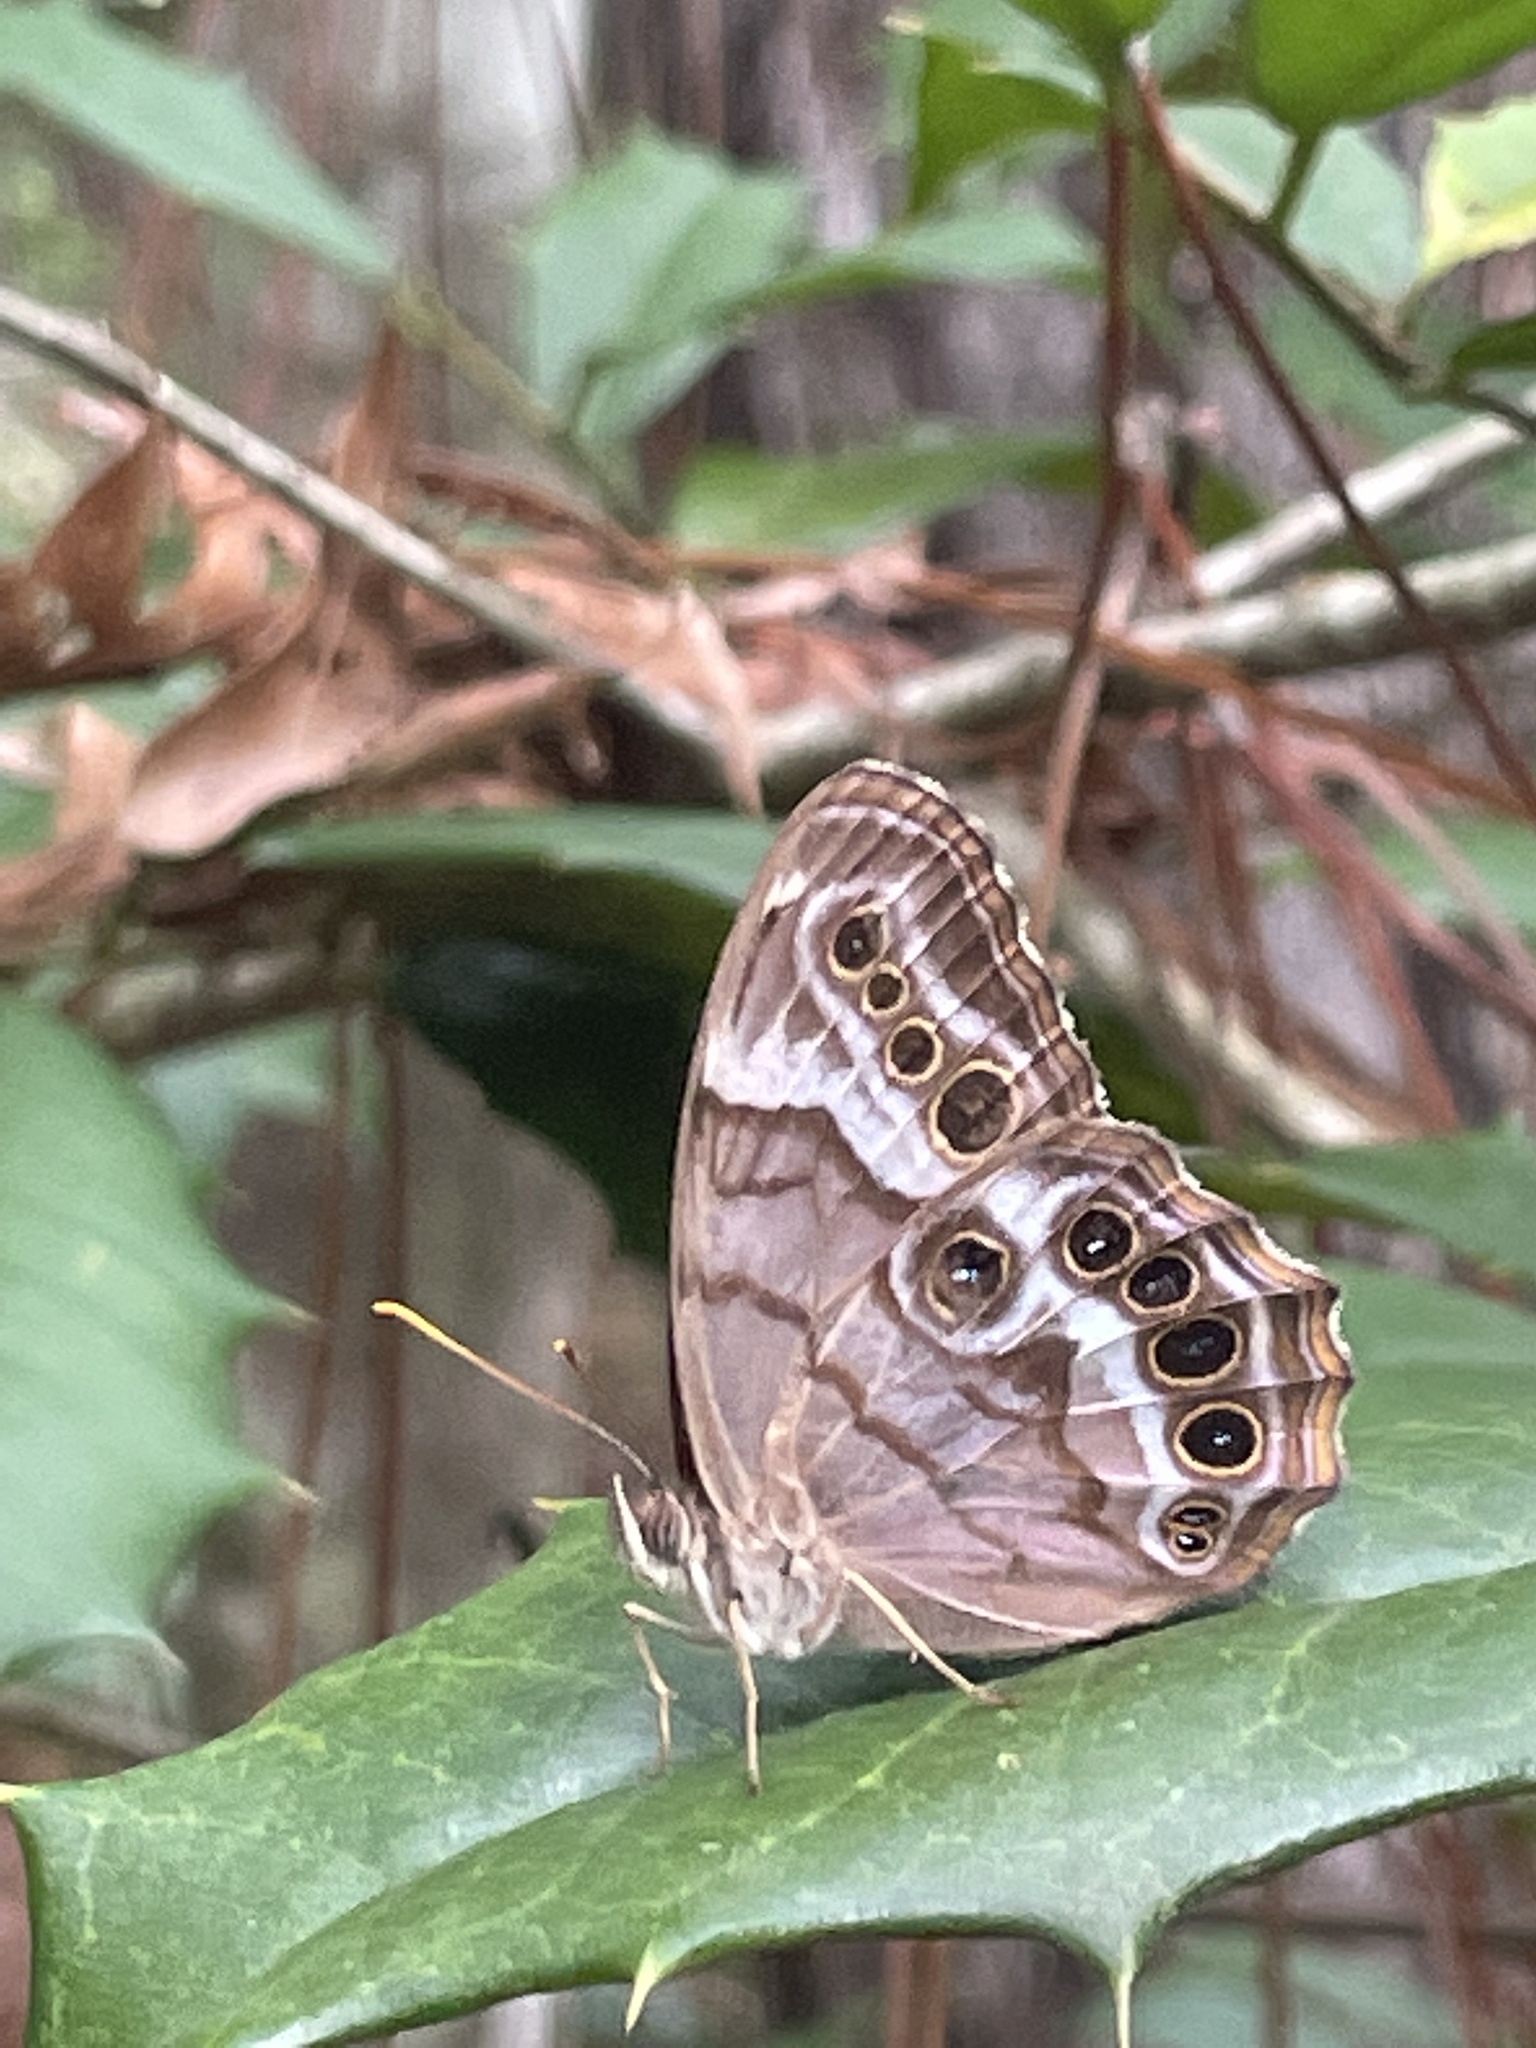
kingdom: Animalia
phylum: Arthropoda
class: Insecta
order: Lepidoptera
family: Nymphalidae
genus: Enodia
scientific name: Enodia portlandia
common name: Southern pearly-eye
